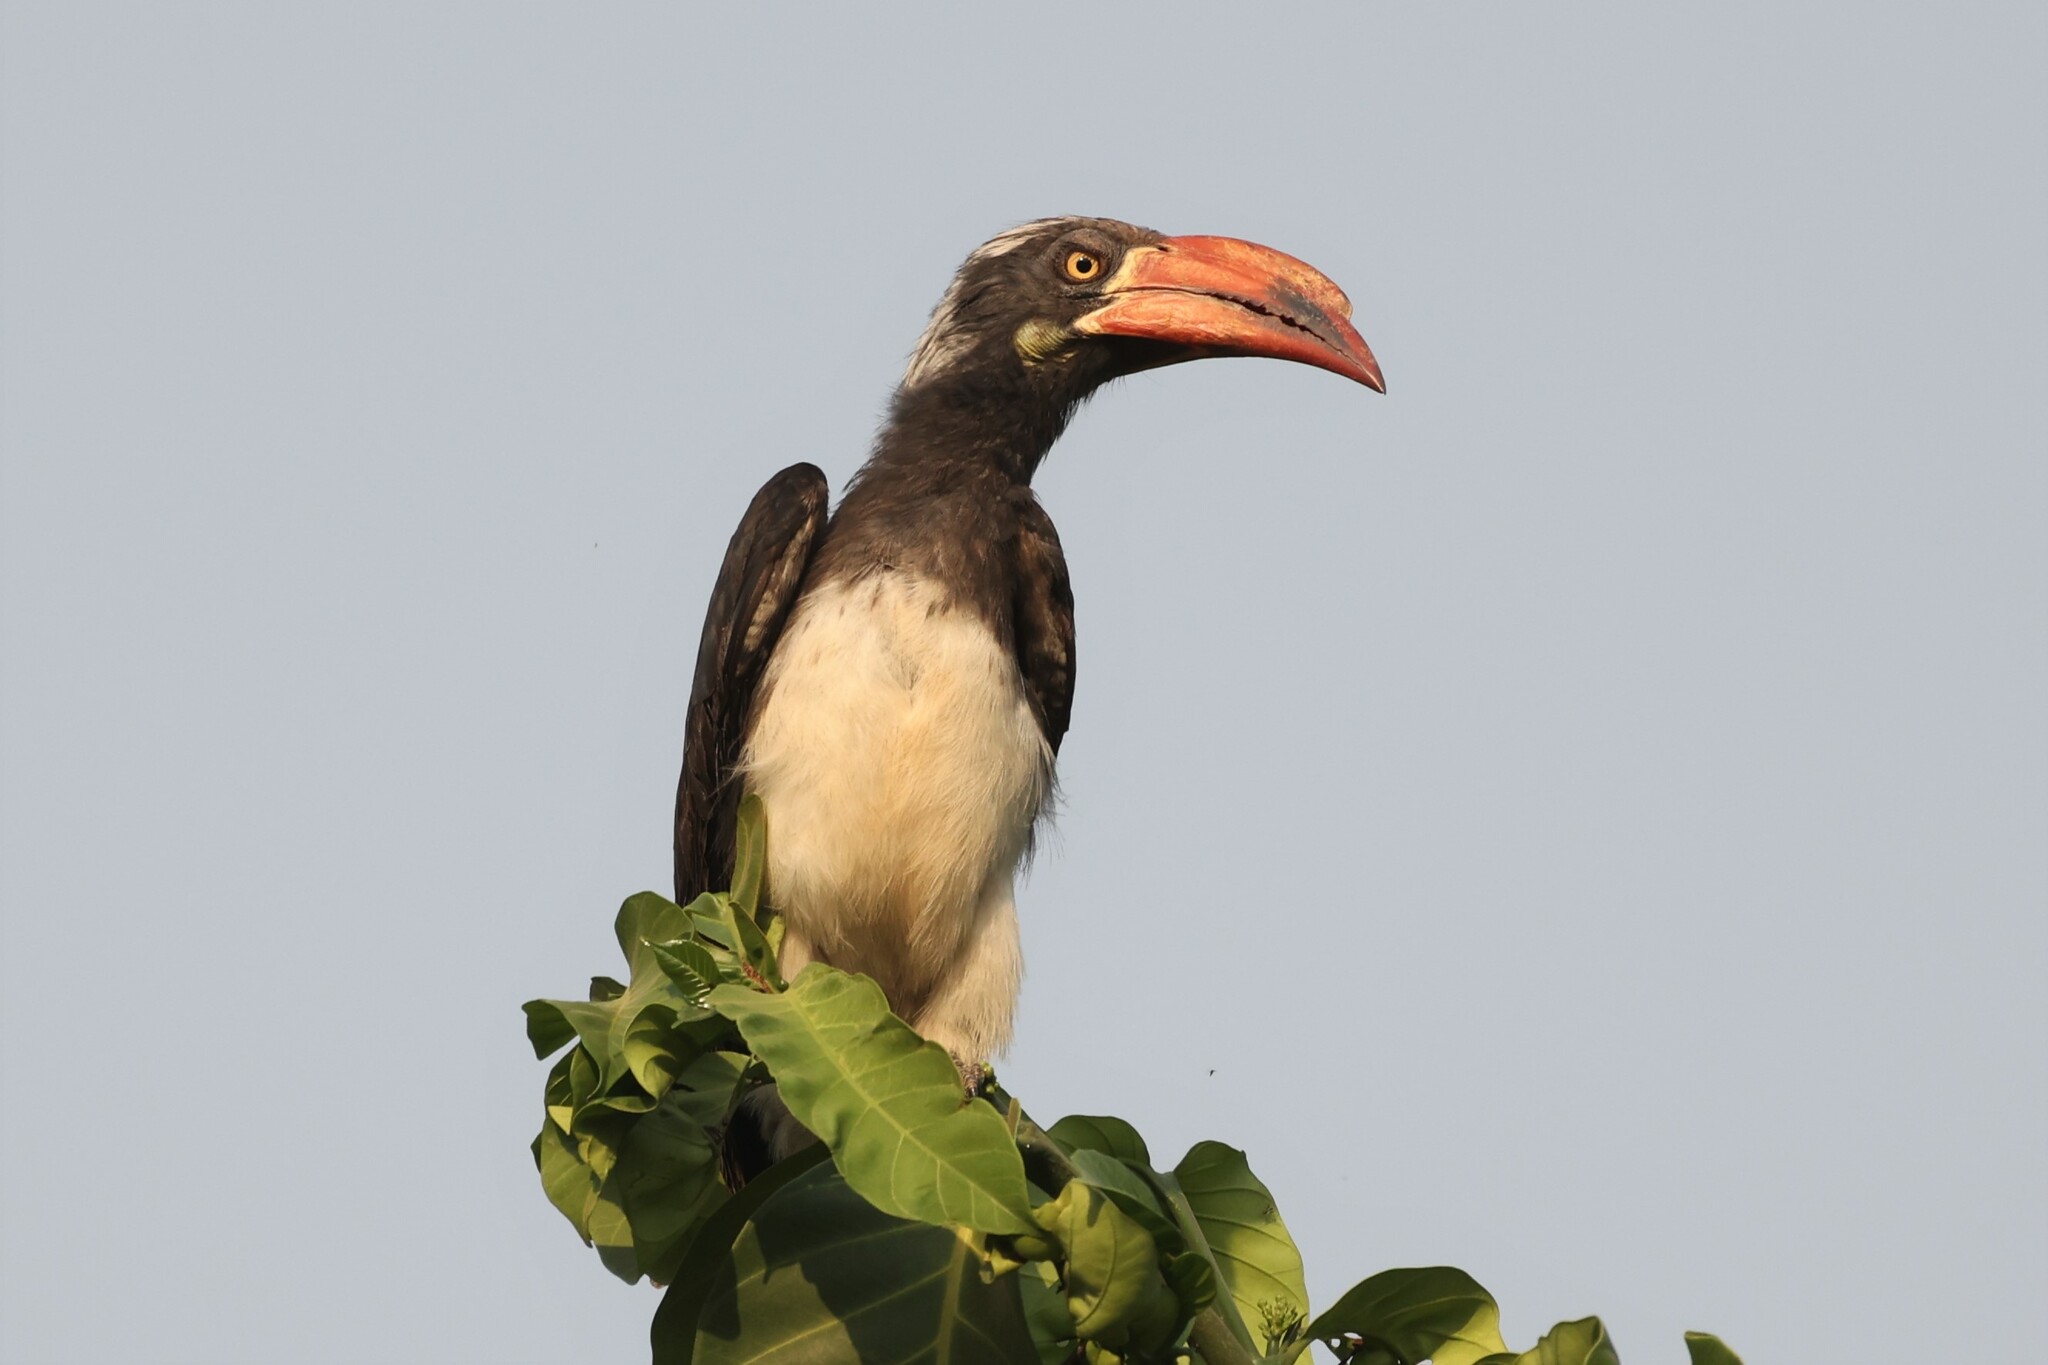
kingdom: Animalia
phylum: Chordata
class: Aves
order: Bucerotiformes
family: Bucerotidae
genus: Lophoceros
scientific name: Lophoceros alboterminatus
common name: Crowned hornbill
